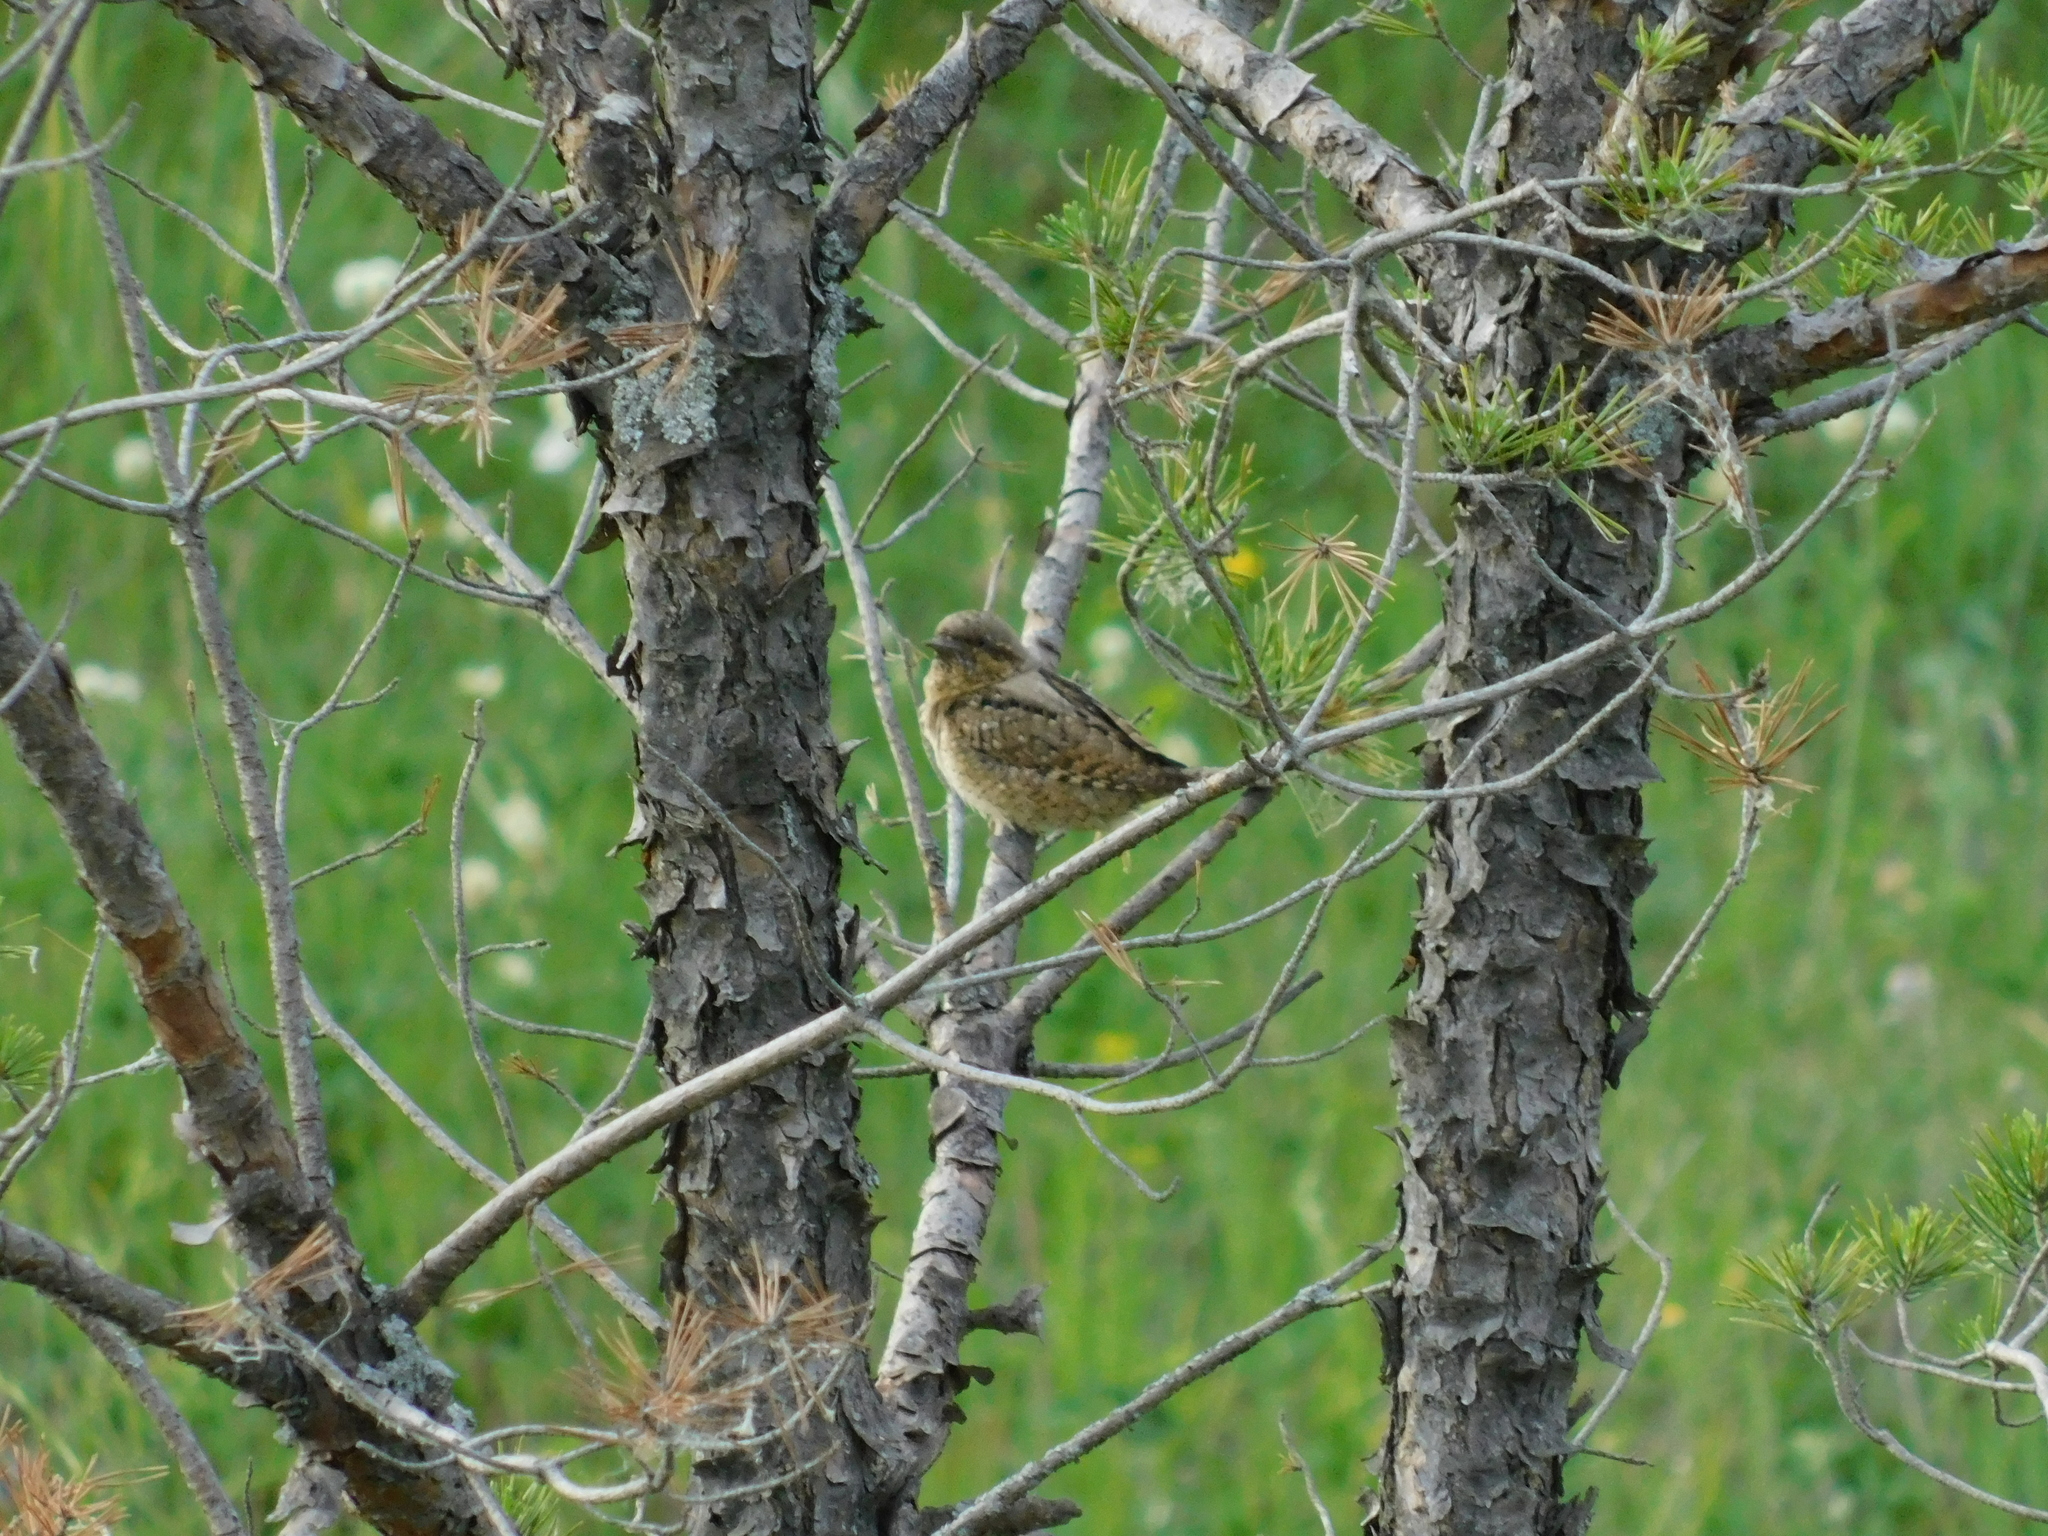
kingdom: Animalia
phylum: Chordata
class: Aves
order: Piciformes
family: Picidae
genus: Jynx
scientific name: Jynx torquilla
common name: Eurasian wryneck
